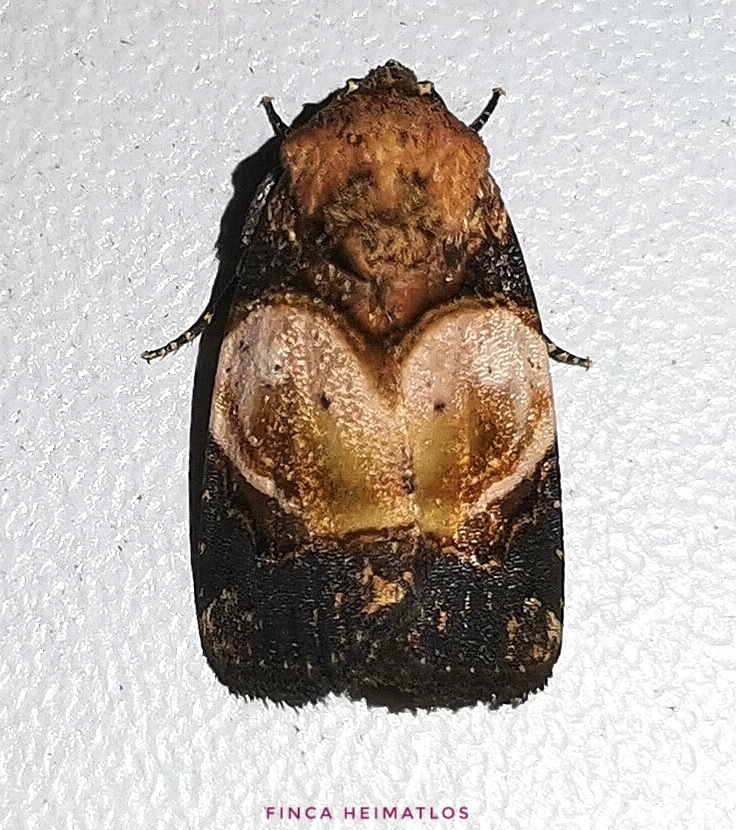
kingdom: Animalia
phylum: Arthropoda
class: Insecta
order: Lepidoptera
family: Noctuidae
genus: Hampsonodes
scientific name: Hampsonodes orbica
